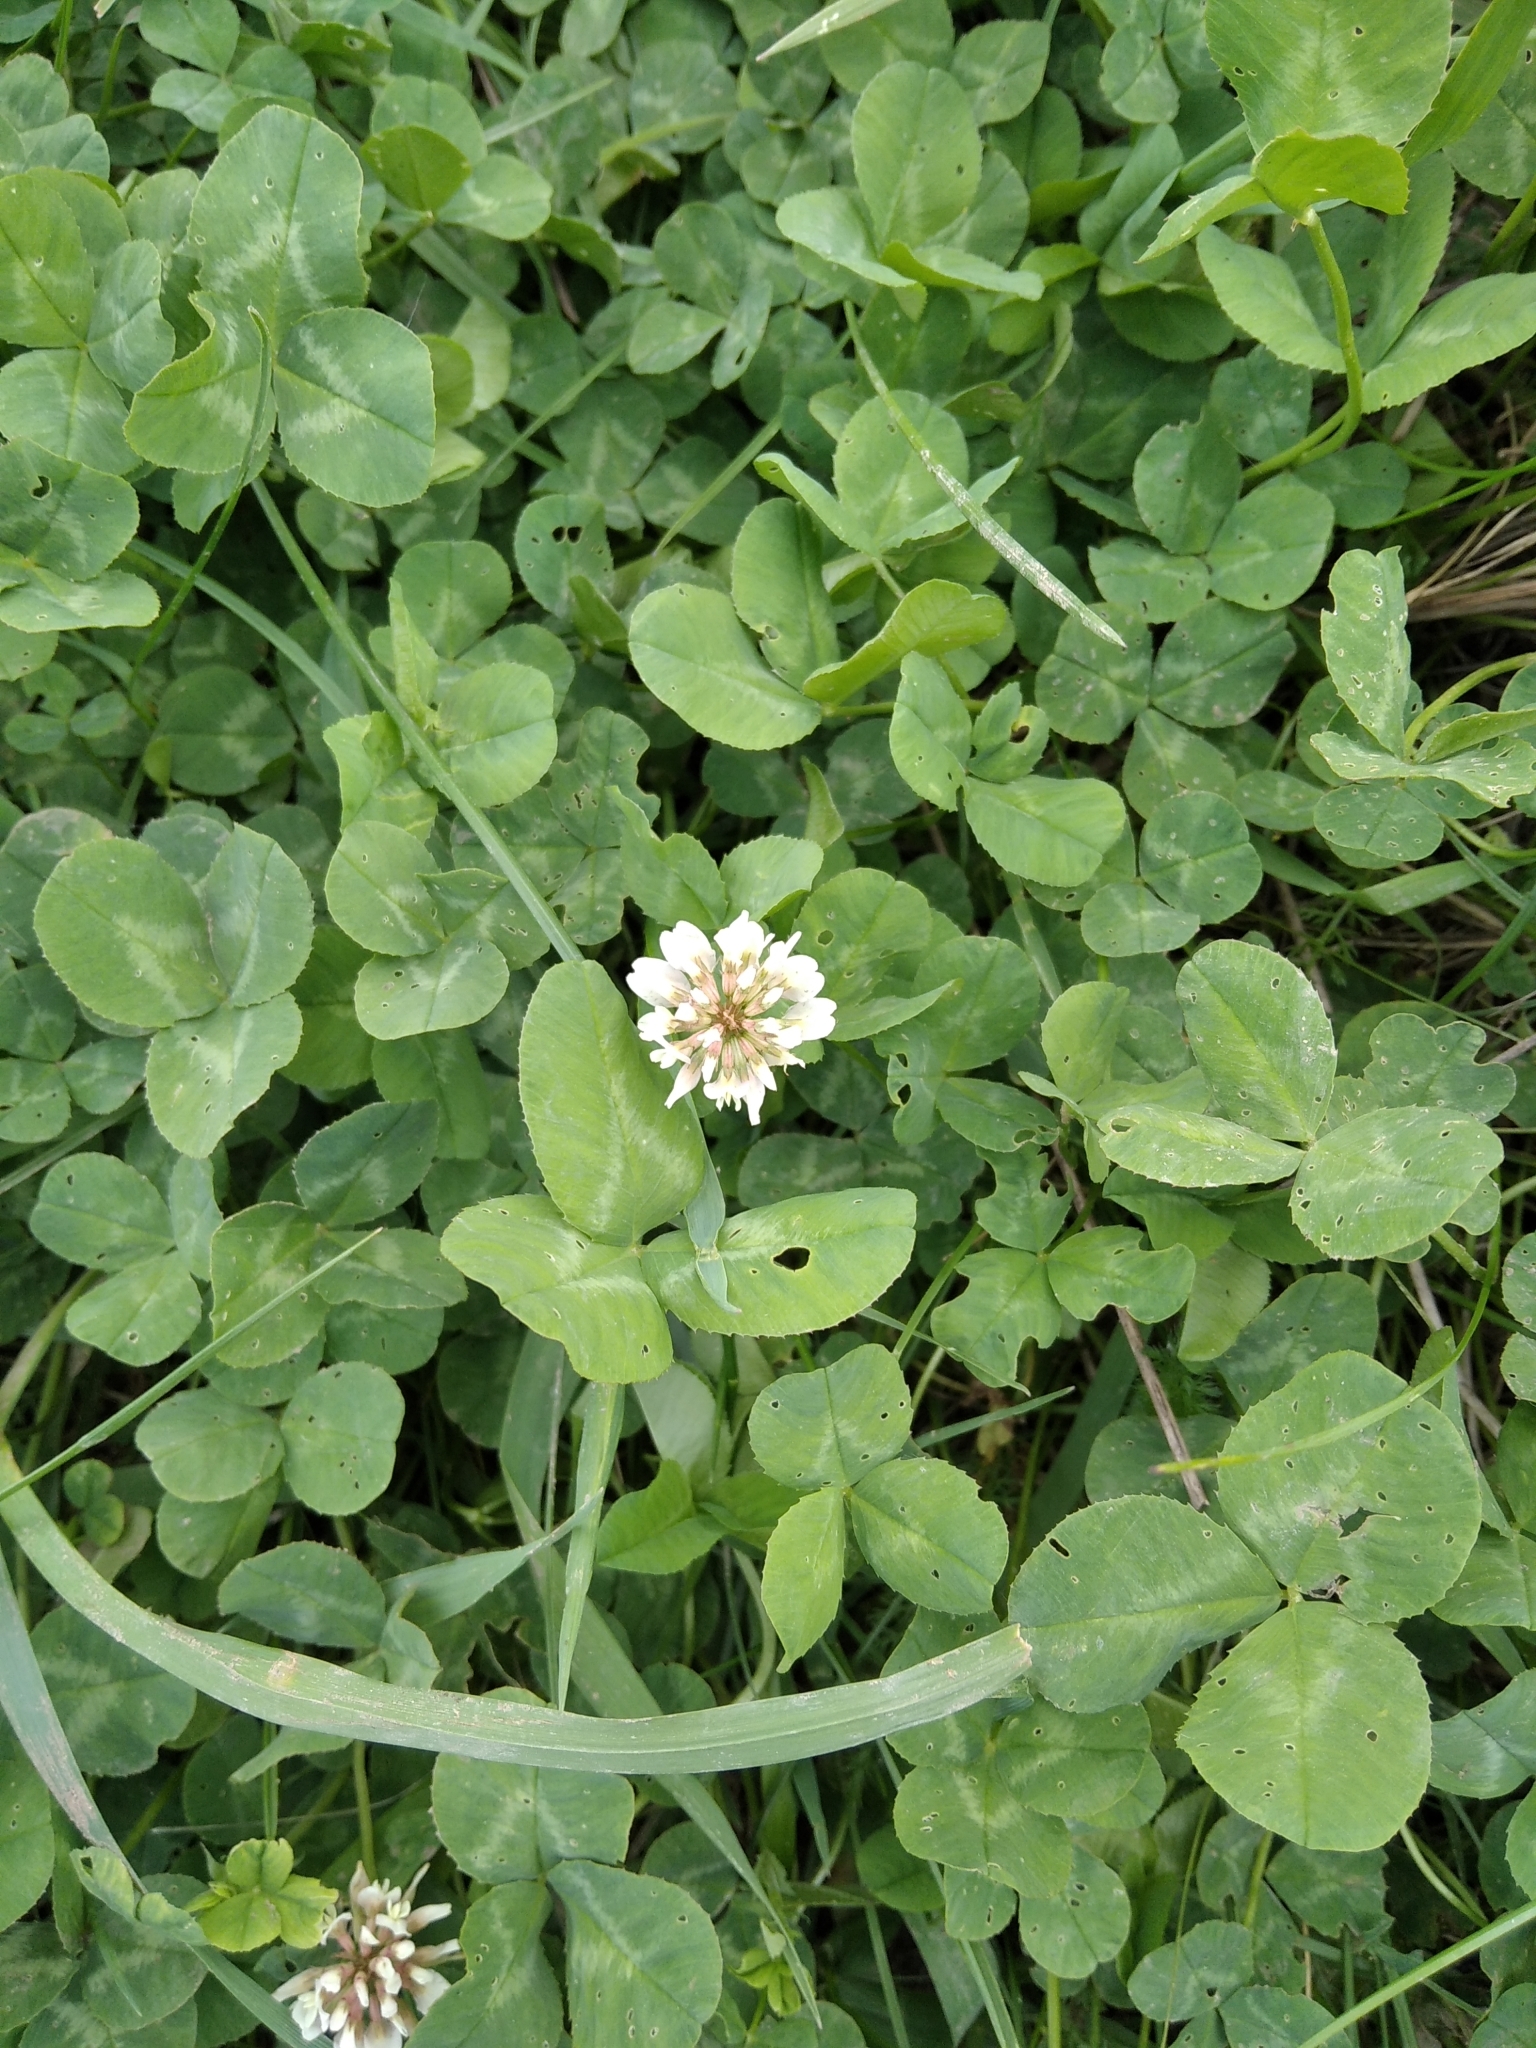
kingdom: Plantae
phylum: Tracheophyta
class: Magnoliopsida
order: Fabales
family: Fabaceae
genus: Trifolium
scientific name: Trifolium repens
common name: White clover
